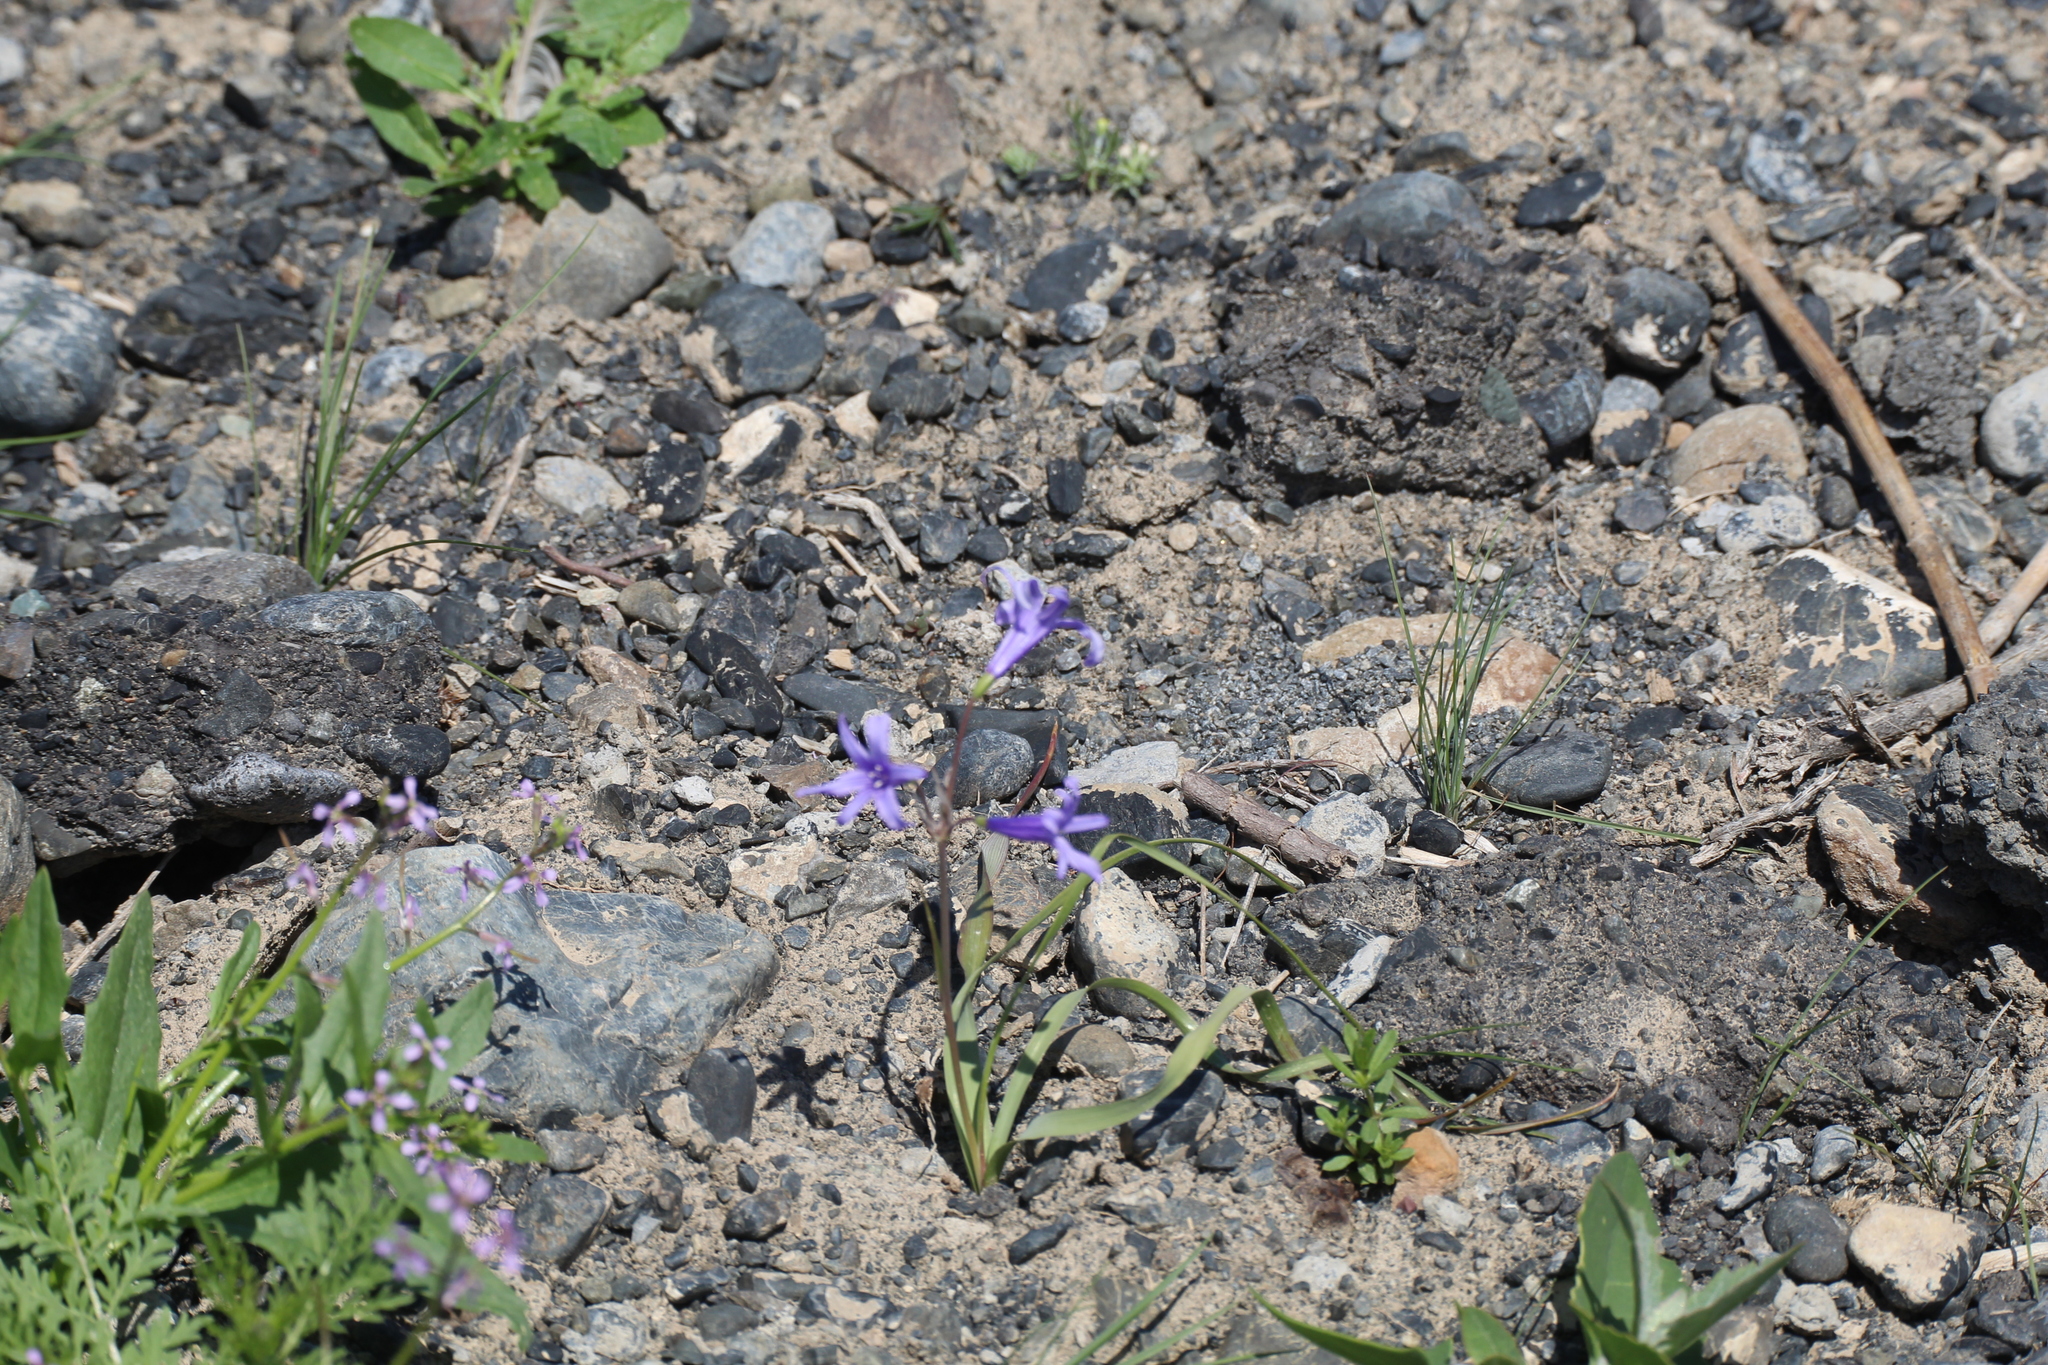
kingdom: Plantae
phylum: Tracheophyta
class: Liliopsida
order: Asparagales
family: Ixioliriaceae
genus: Ixiolirion
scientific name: Ixiolirion tataricum
